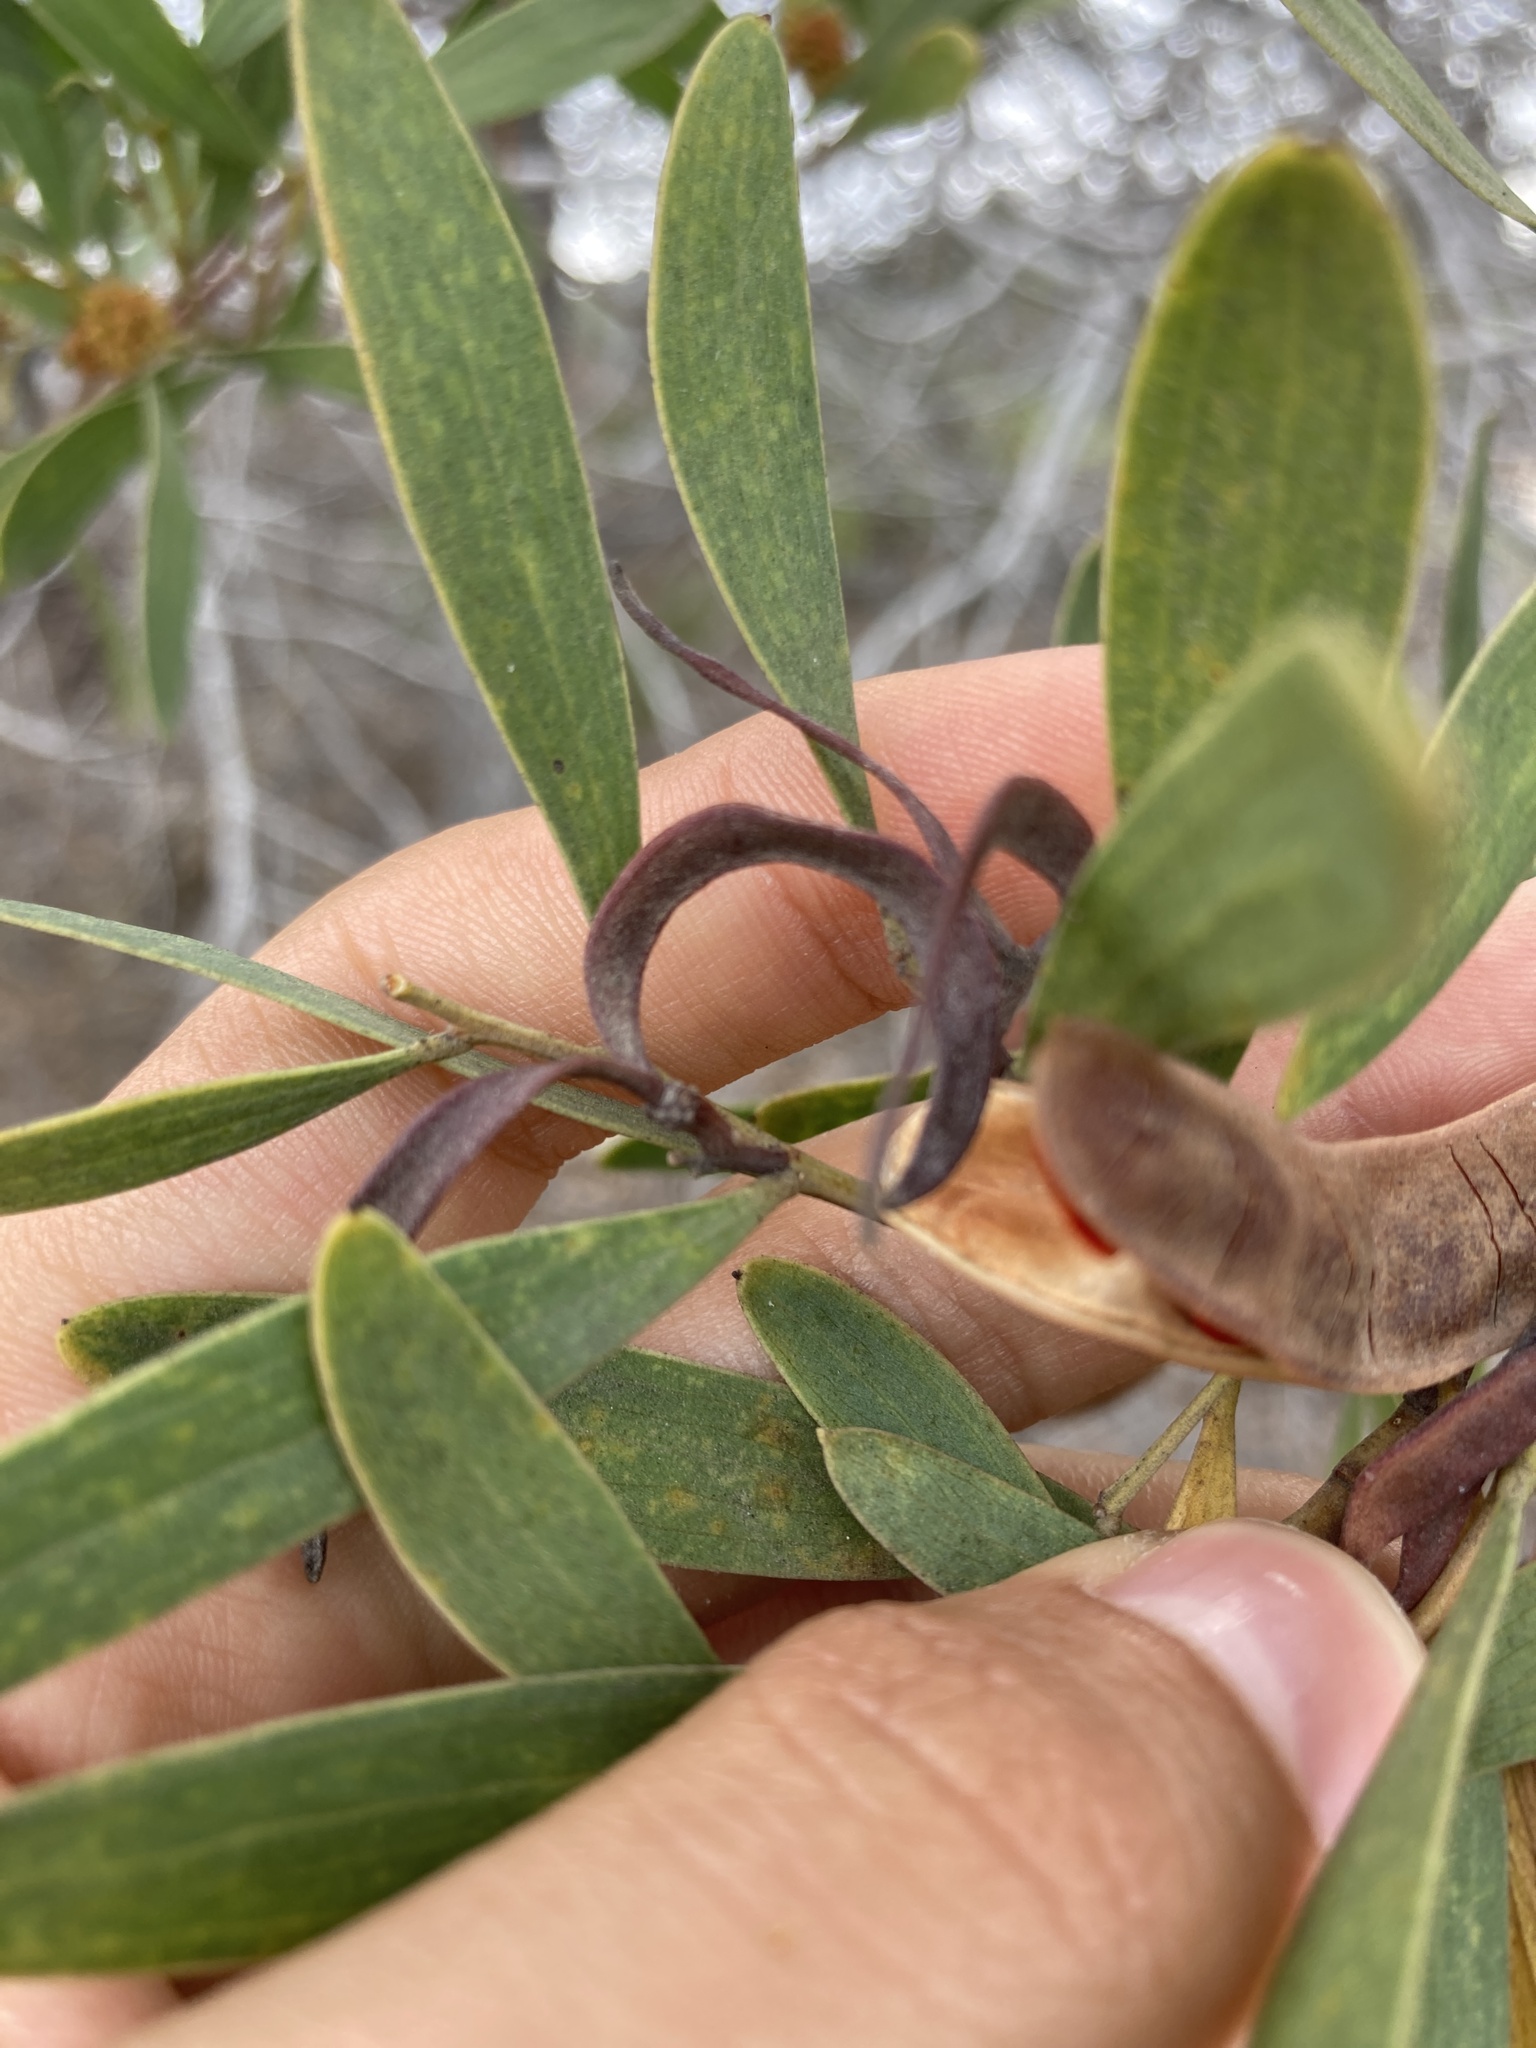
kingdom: Plantae
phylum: Tracheophyta
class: Magnoliopsida
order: Fabales
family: Fabaceae
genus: Acacia
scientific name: Acacia cyclops
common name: Coastal wattle
